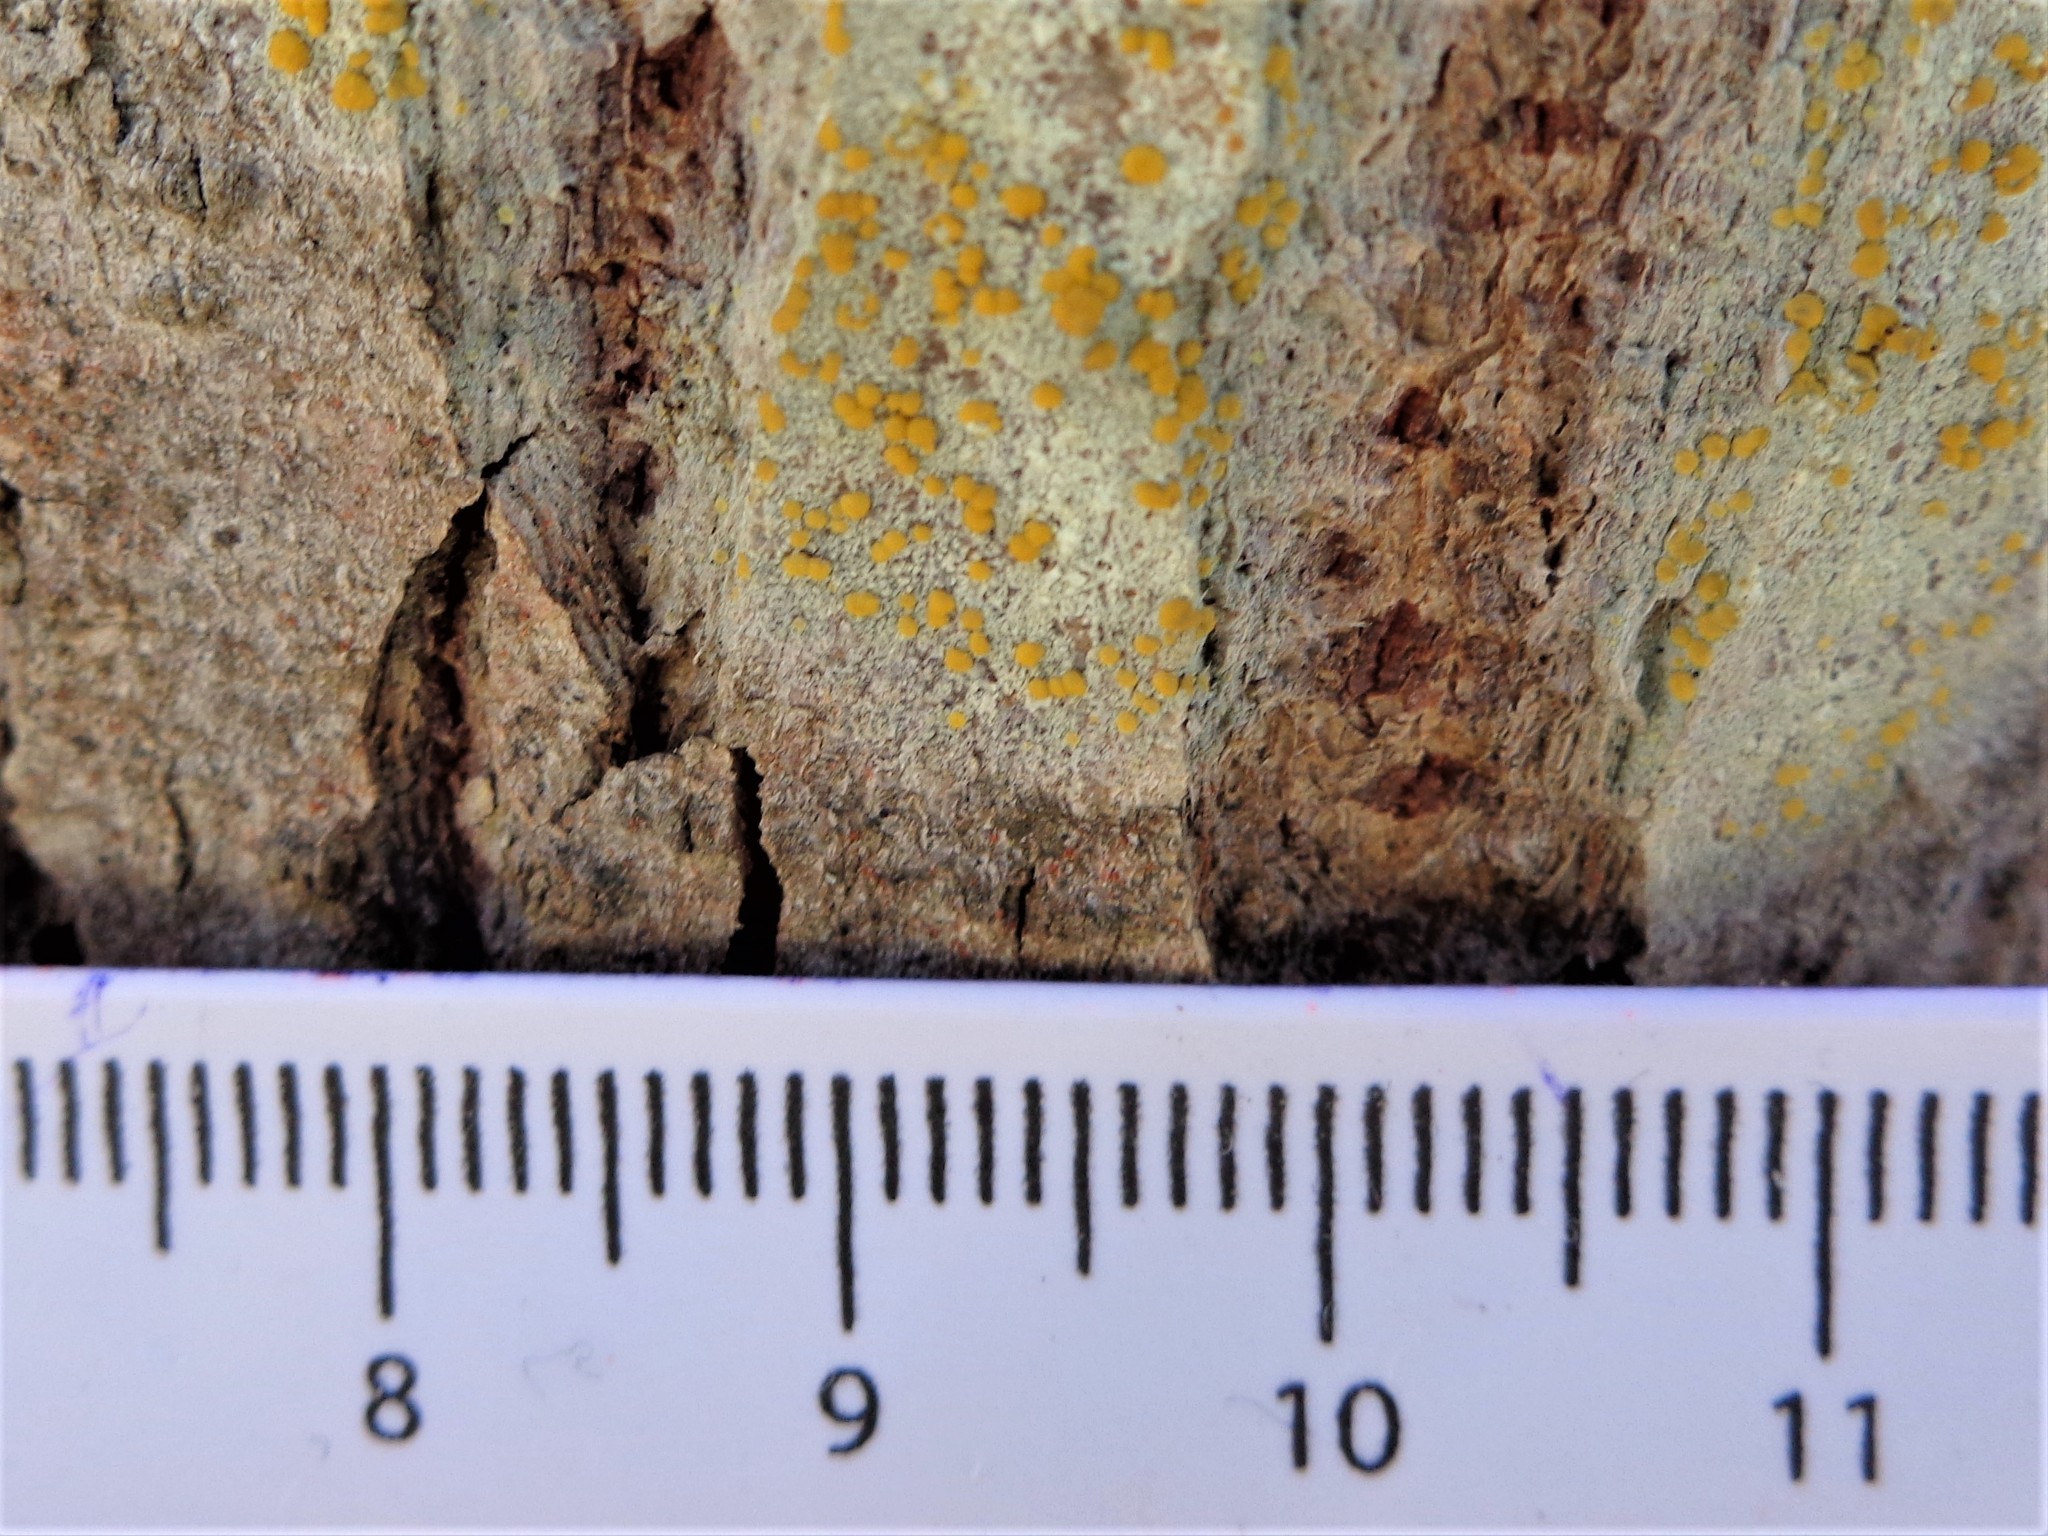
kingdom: Fungi
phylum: Ascomycota
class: Lecanoromycetes
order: Lecanorales
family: Lecanoraceae
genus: Lecanora
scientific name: Lecanora symmicta
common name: Fused rim lichen
